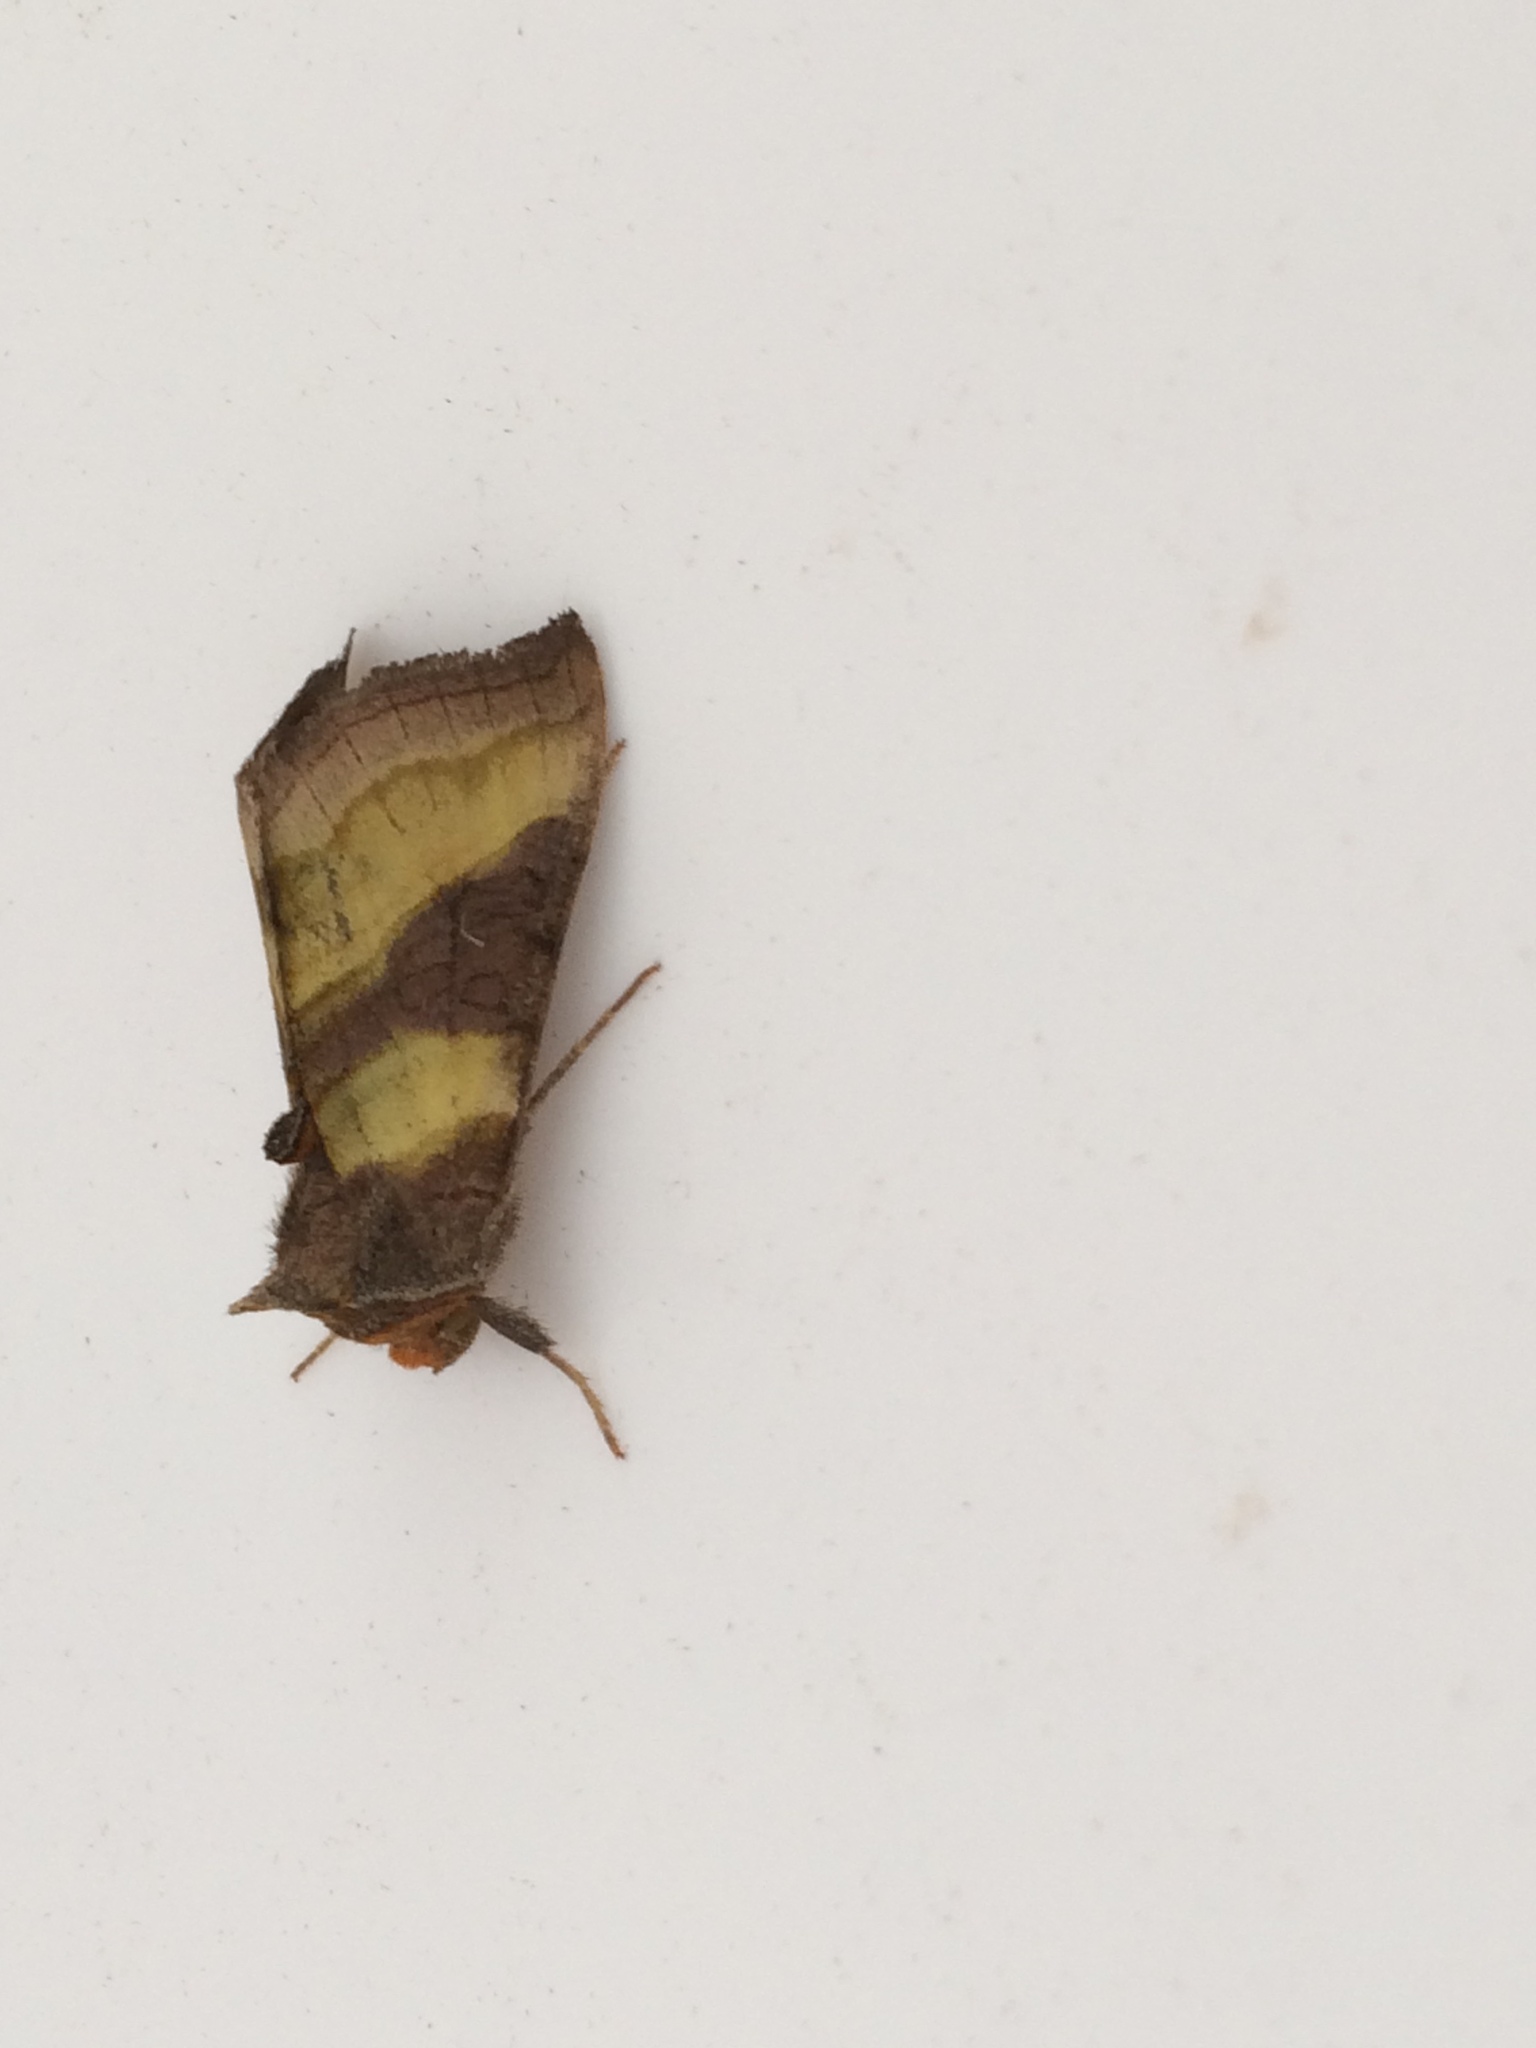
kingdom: Animalia
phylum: Arthropoda
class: Insecta
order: Lepidoptera
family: Noctuidae
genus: Diachrysia
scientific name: Diachrysia chrysitis
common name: Burnished brass
